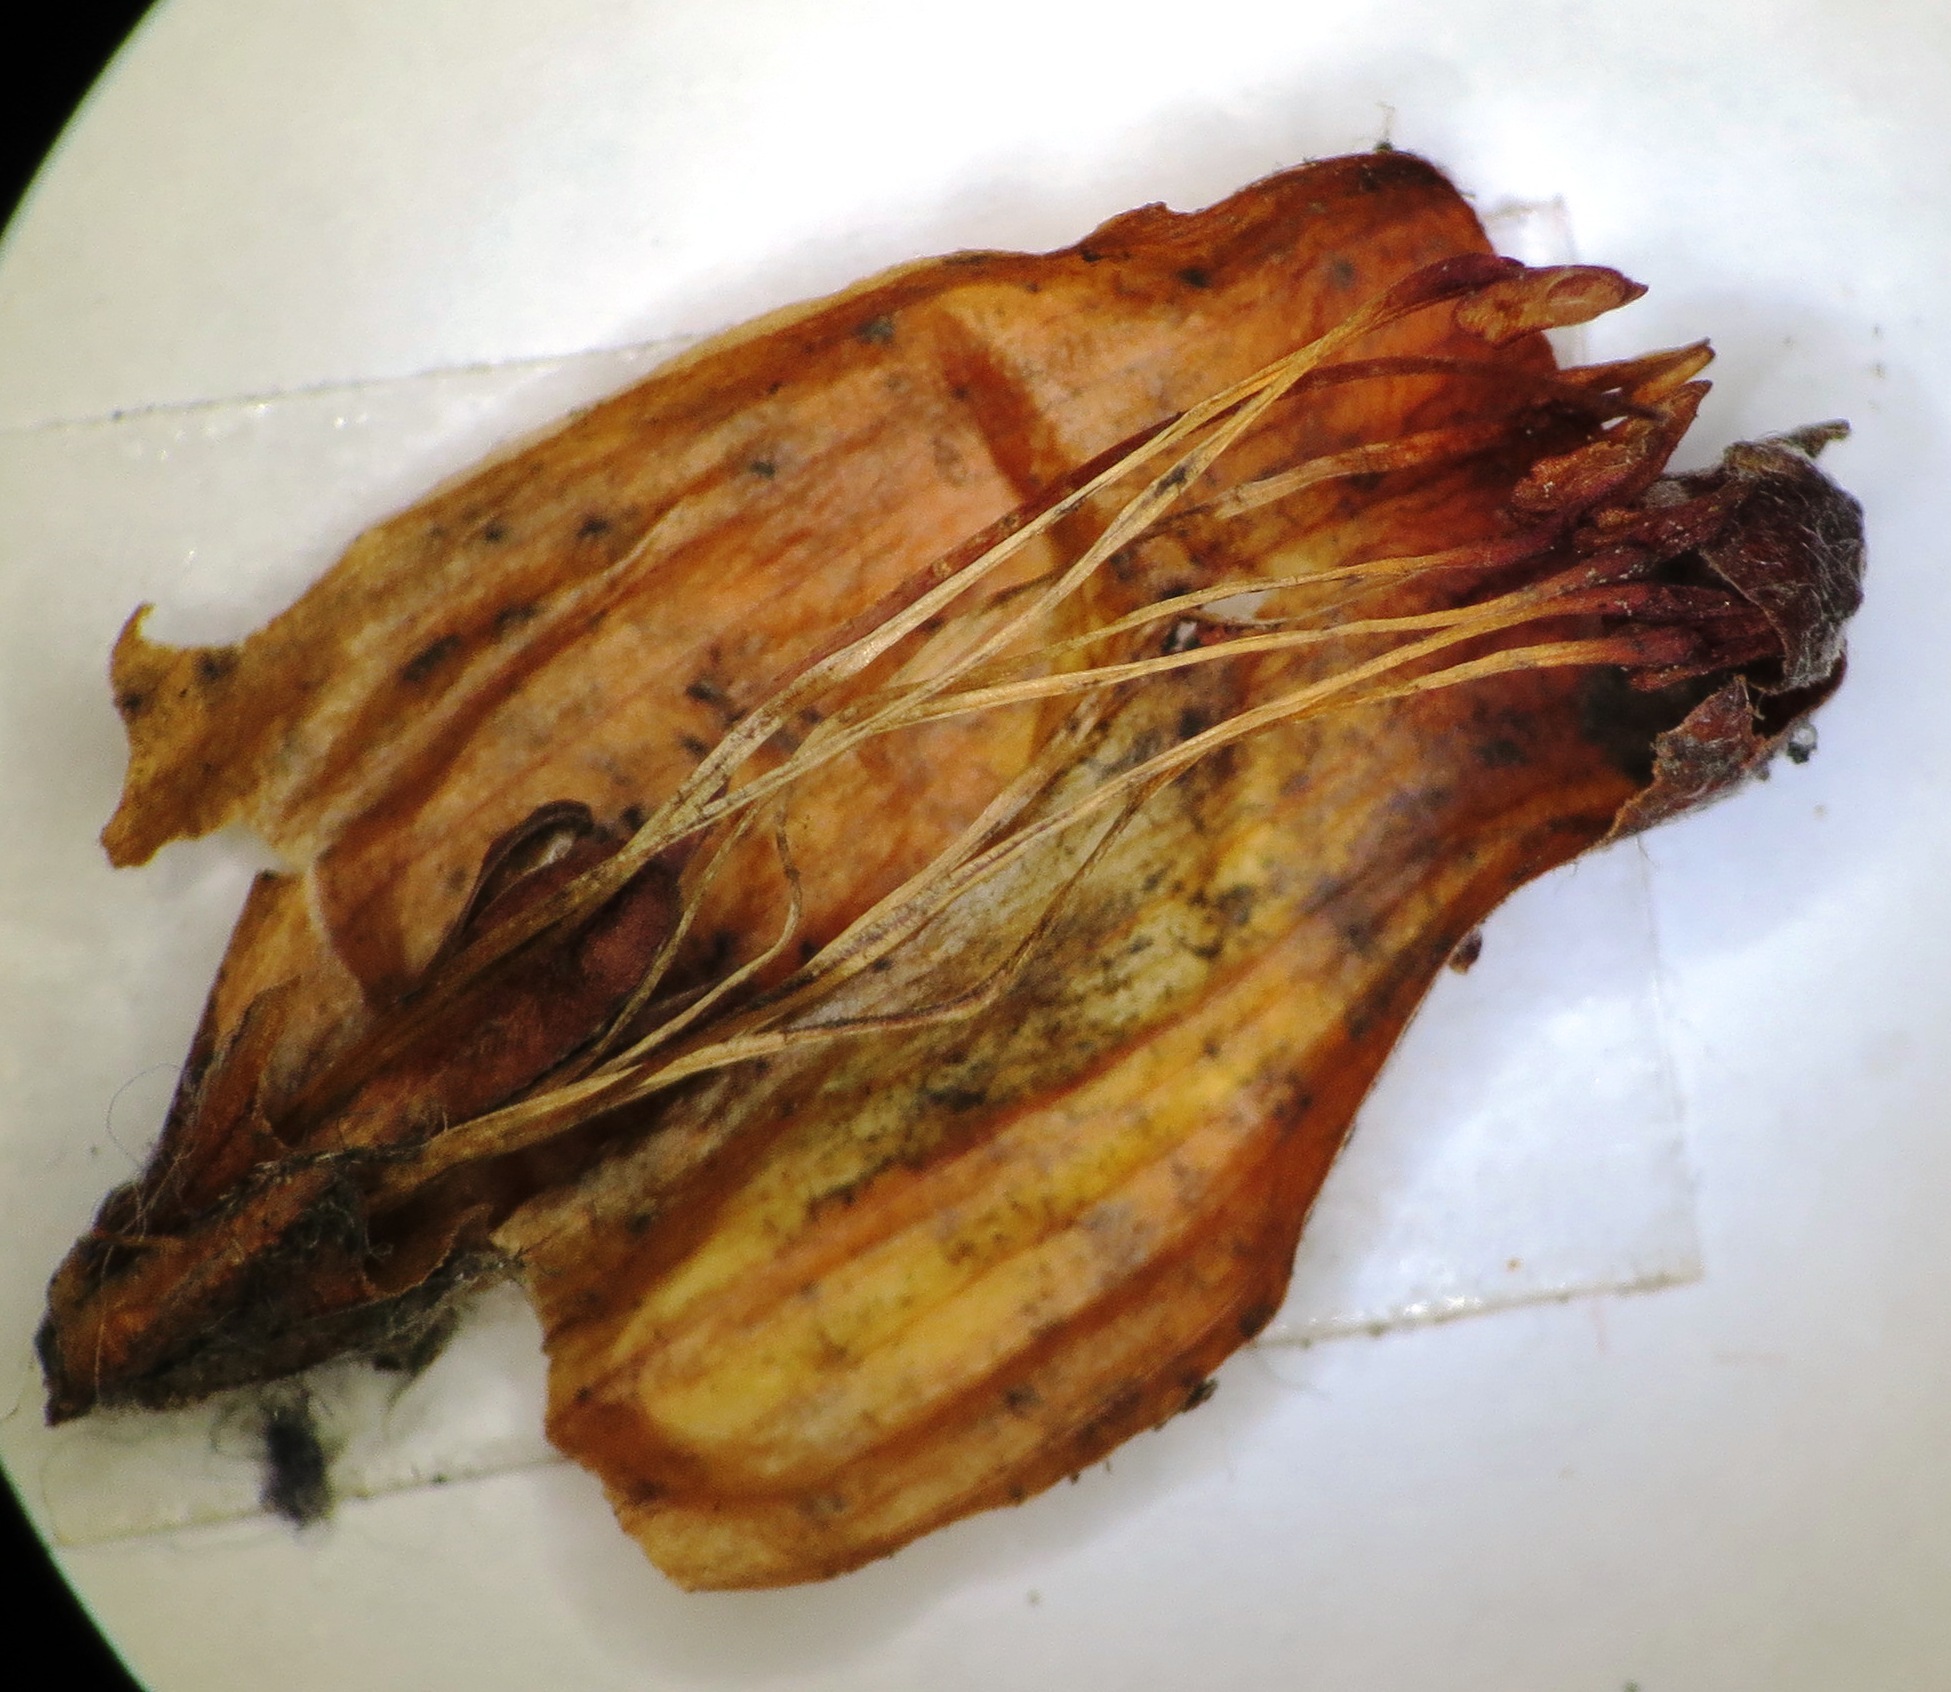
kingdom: Plantae
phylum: Tracheophyta
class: Magnoliopsida
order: Ericales
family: Ericaceae
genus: Erica
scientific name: Erica massonii
